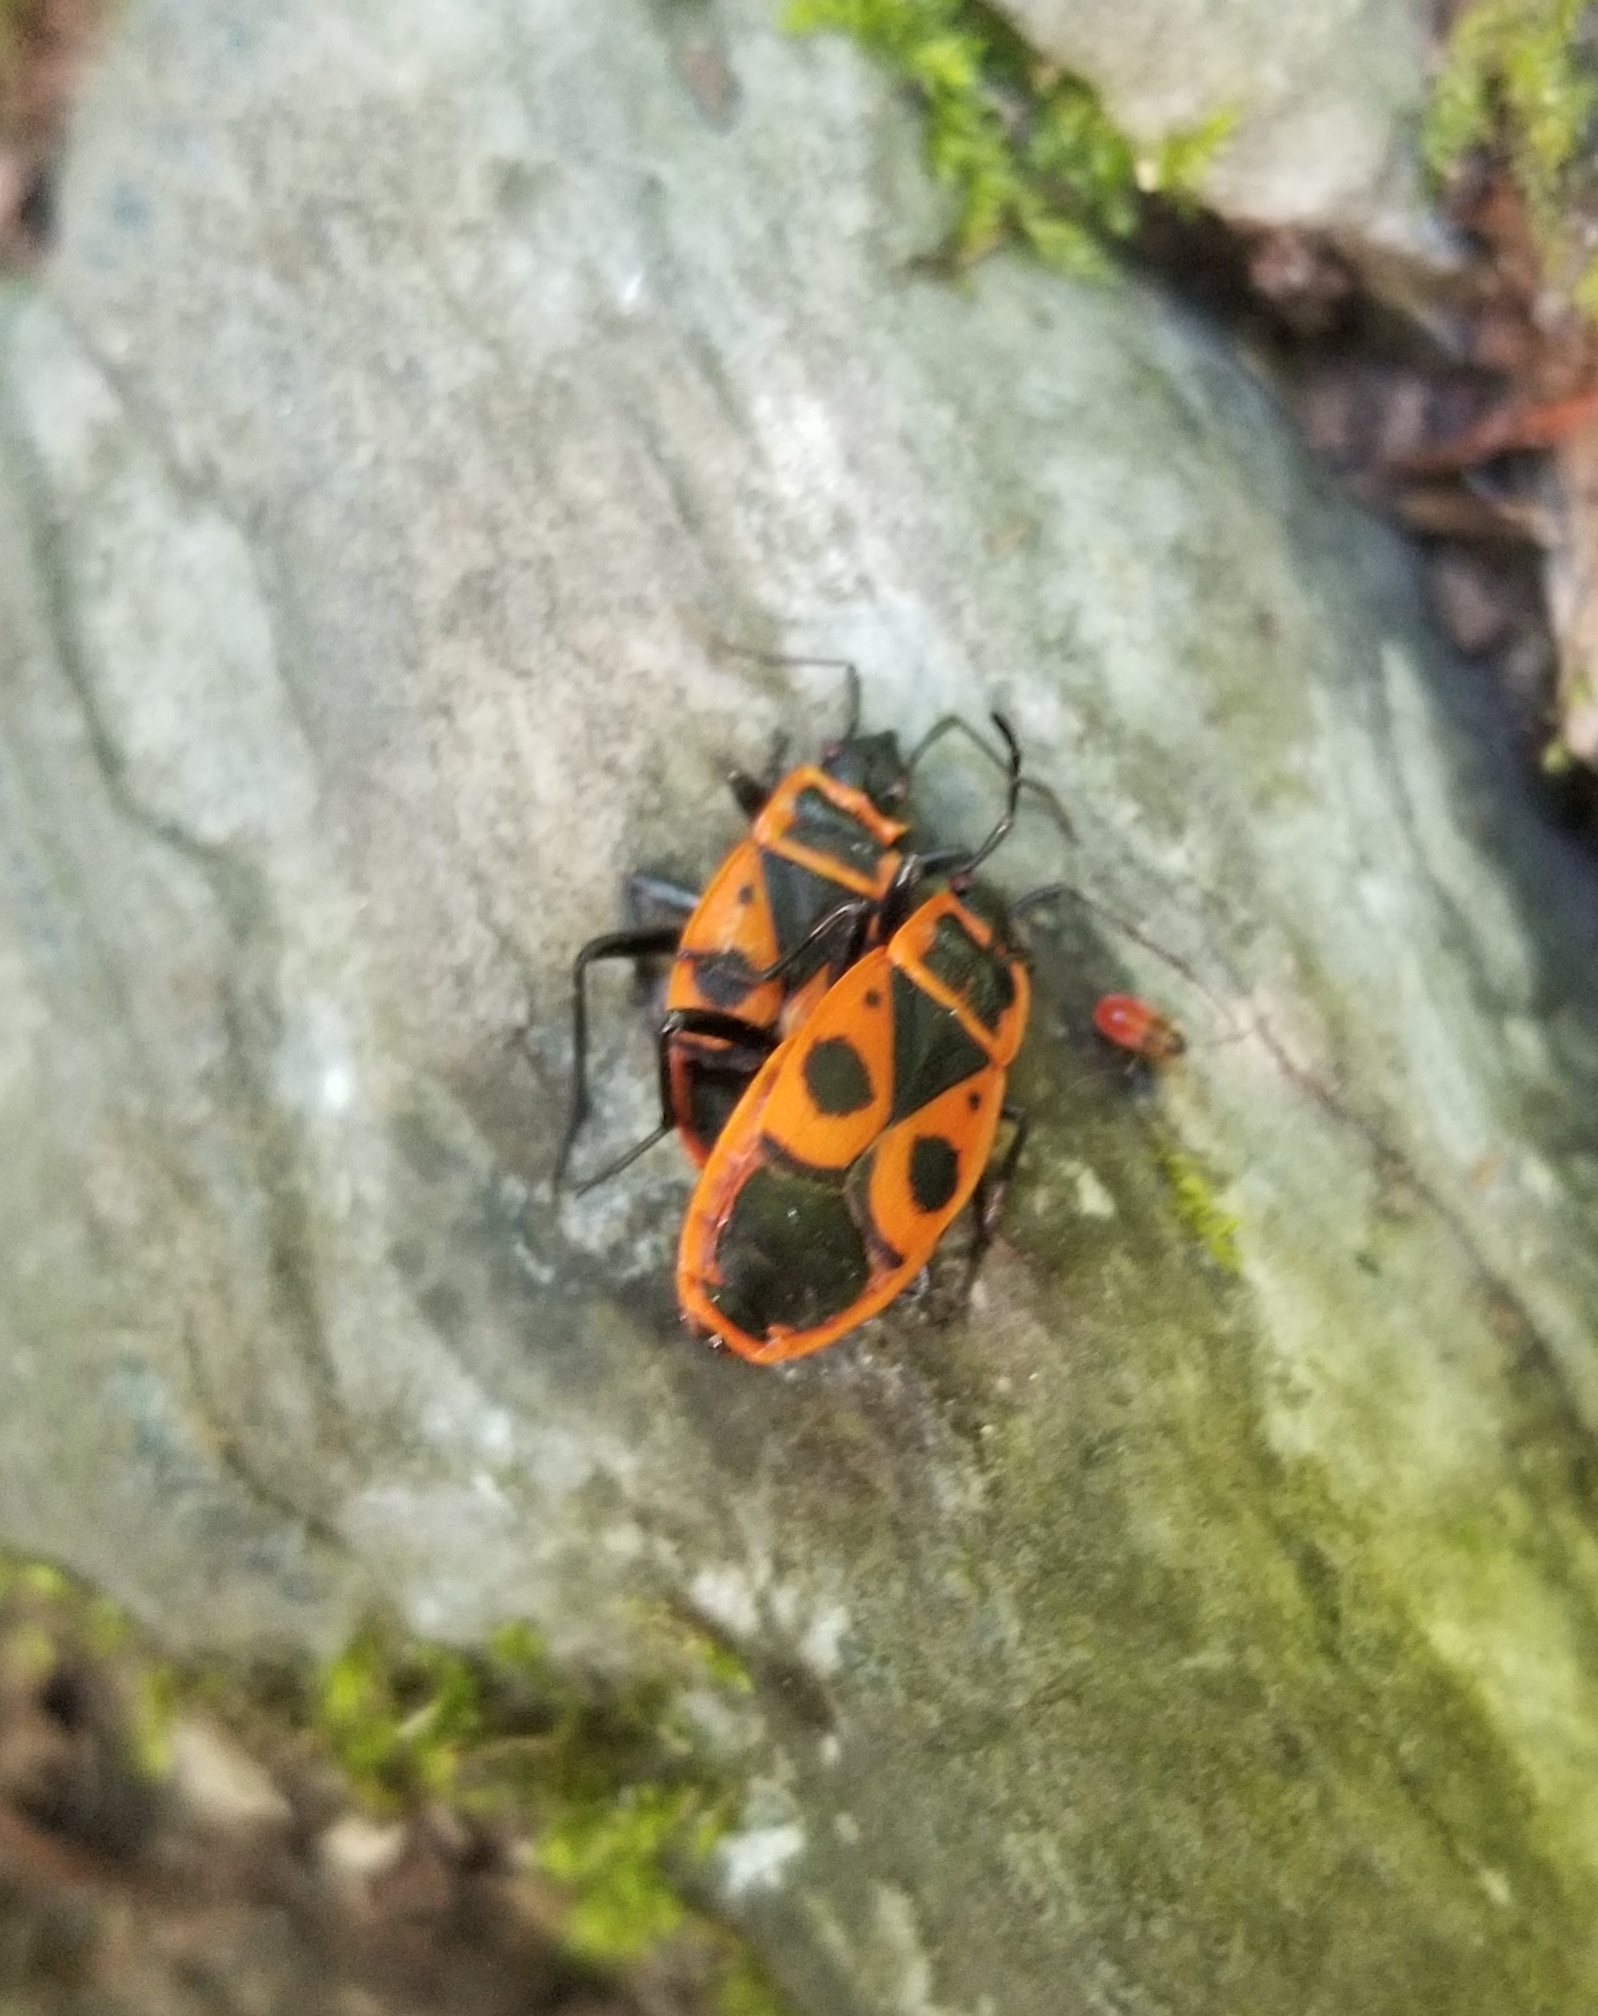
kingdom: Animalia
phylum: Arthropoda
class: Insecta
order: Hemiptera
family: Pyrrhocoridae
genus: Pyrrhocoris
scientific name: Pyrrhocoris apterus
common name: Firebug
